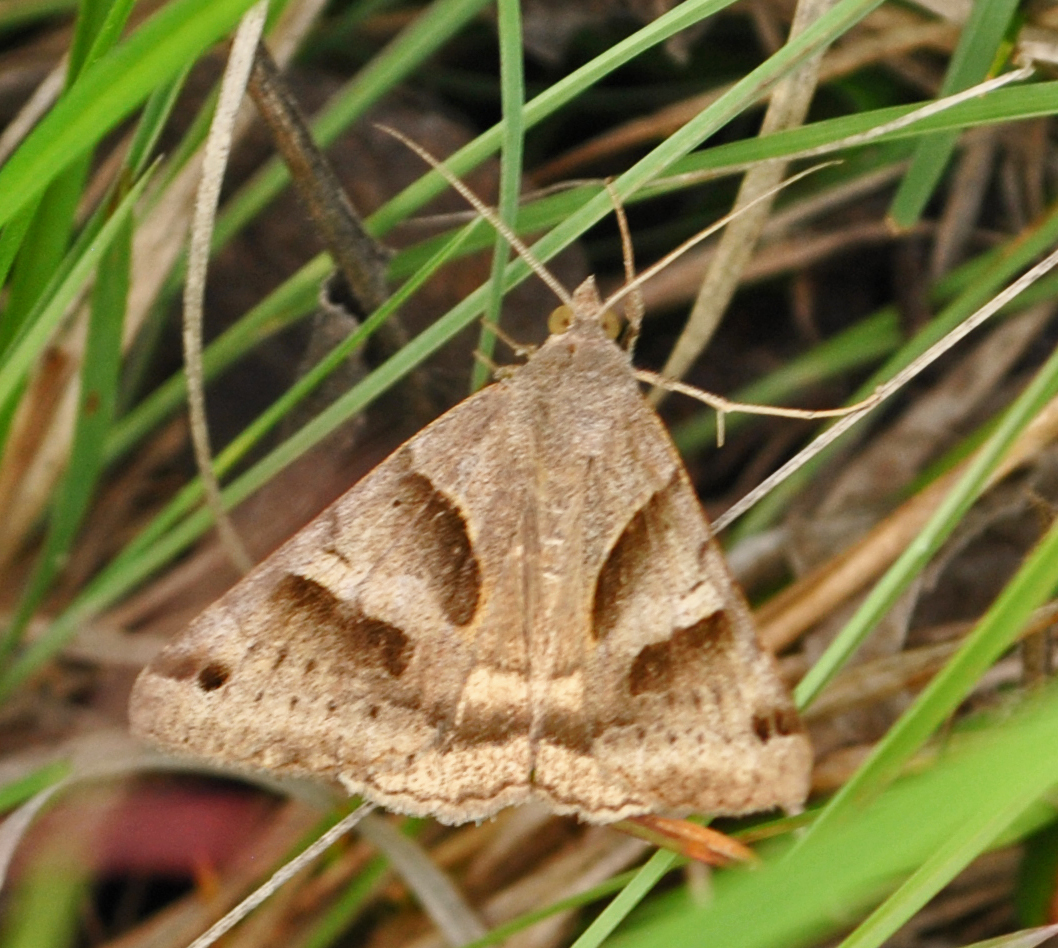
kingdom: Animalia
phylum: Arthropoda
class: Insecta
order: Lepidoptera
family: Erebidae
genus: Caenurgina
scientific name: Caenurgina erechtea
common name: Forage looper moth
